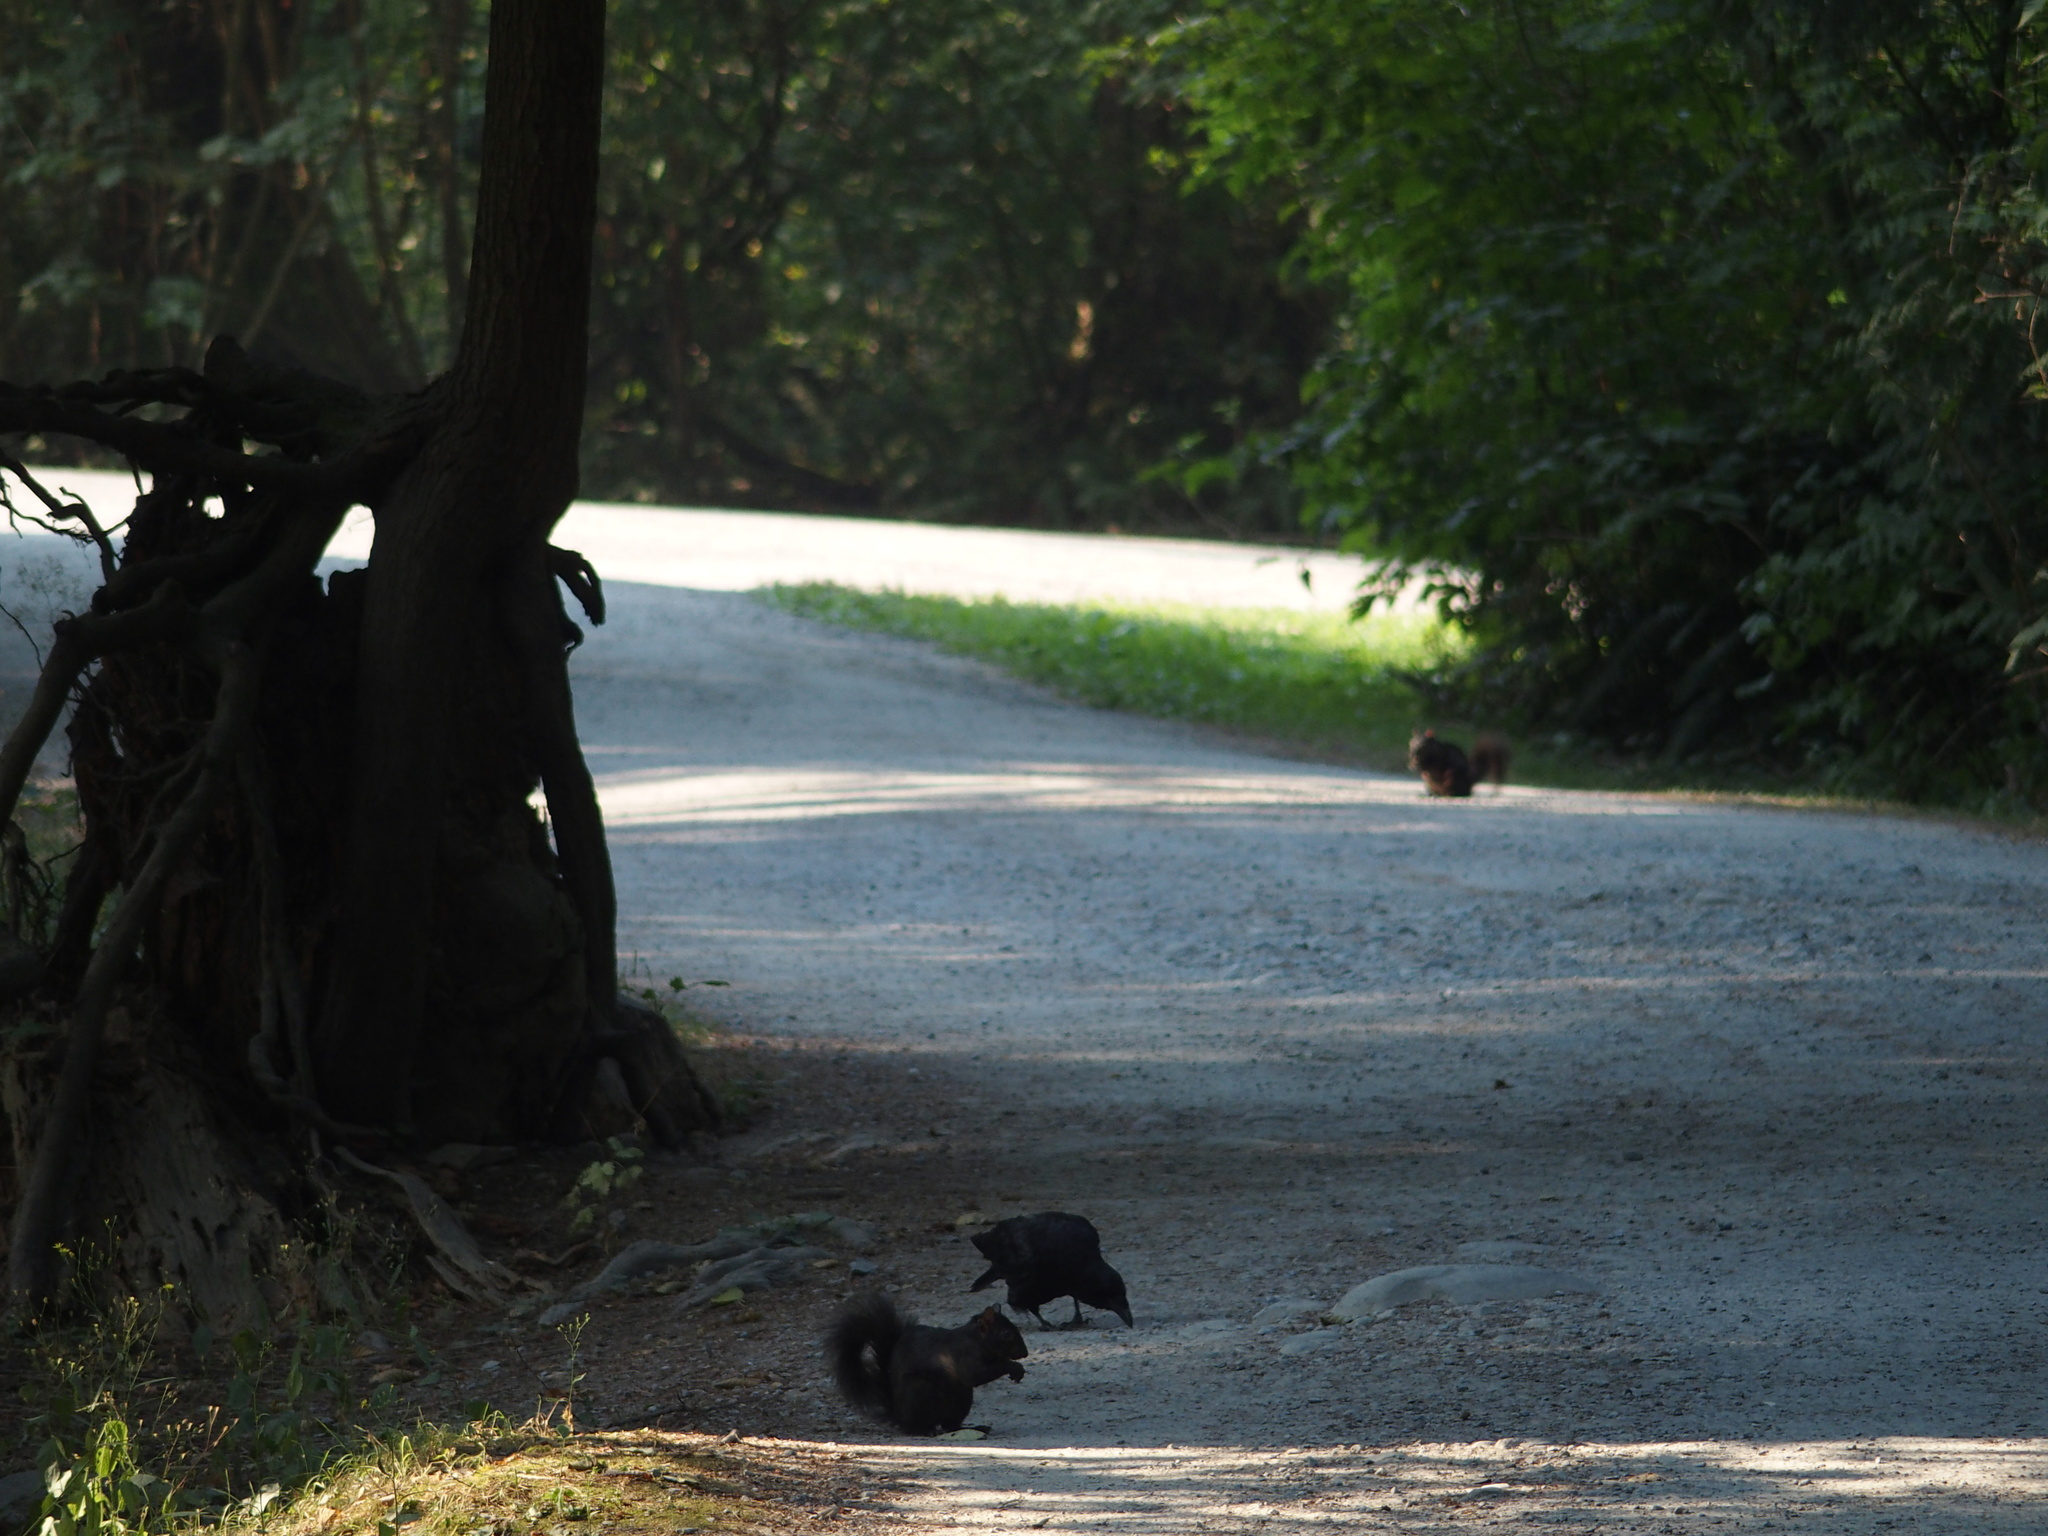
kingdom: Animalia
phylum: Chordata
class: Mammalia
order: Rodentia
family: Sciuridae
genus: Sciurus
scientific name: Sciurus carolinensis
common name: Eastern gray squirrel
